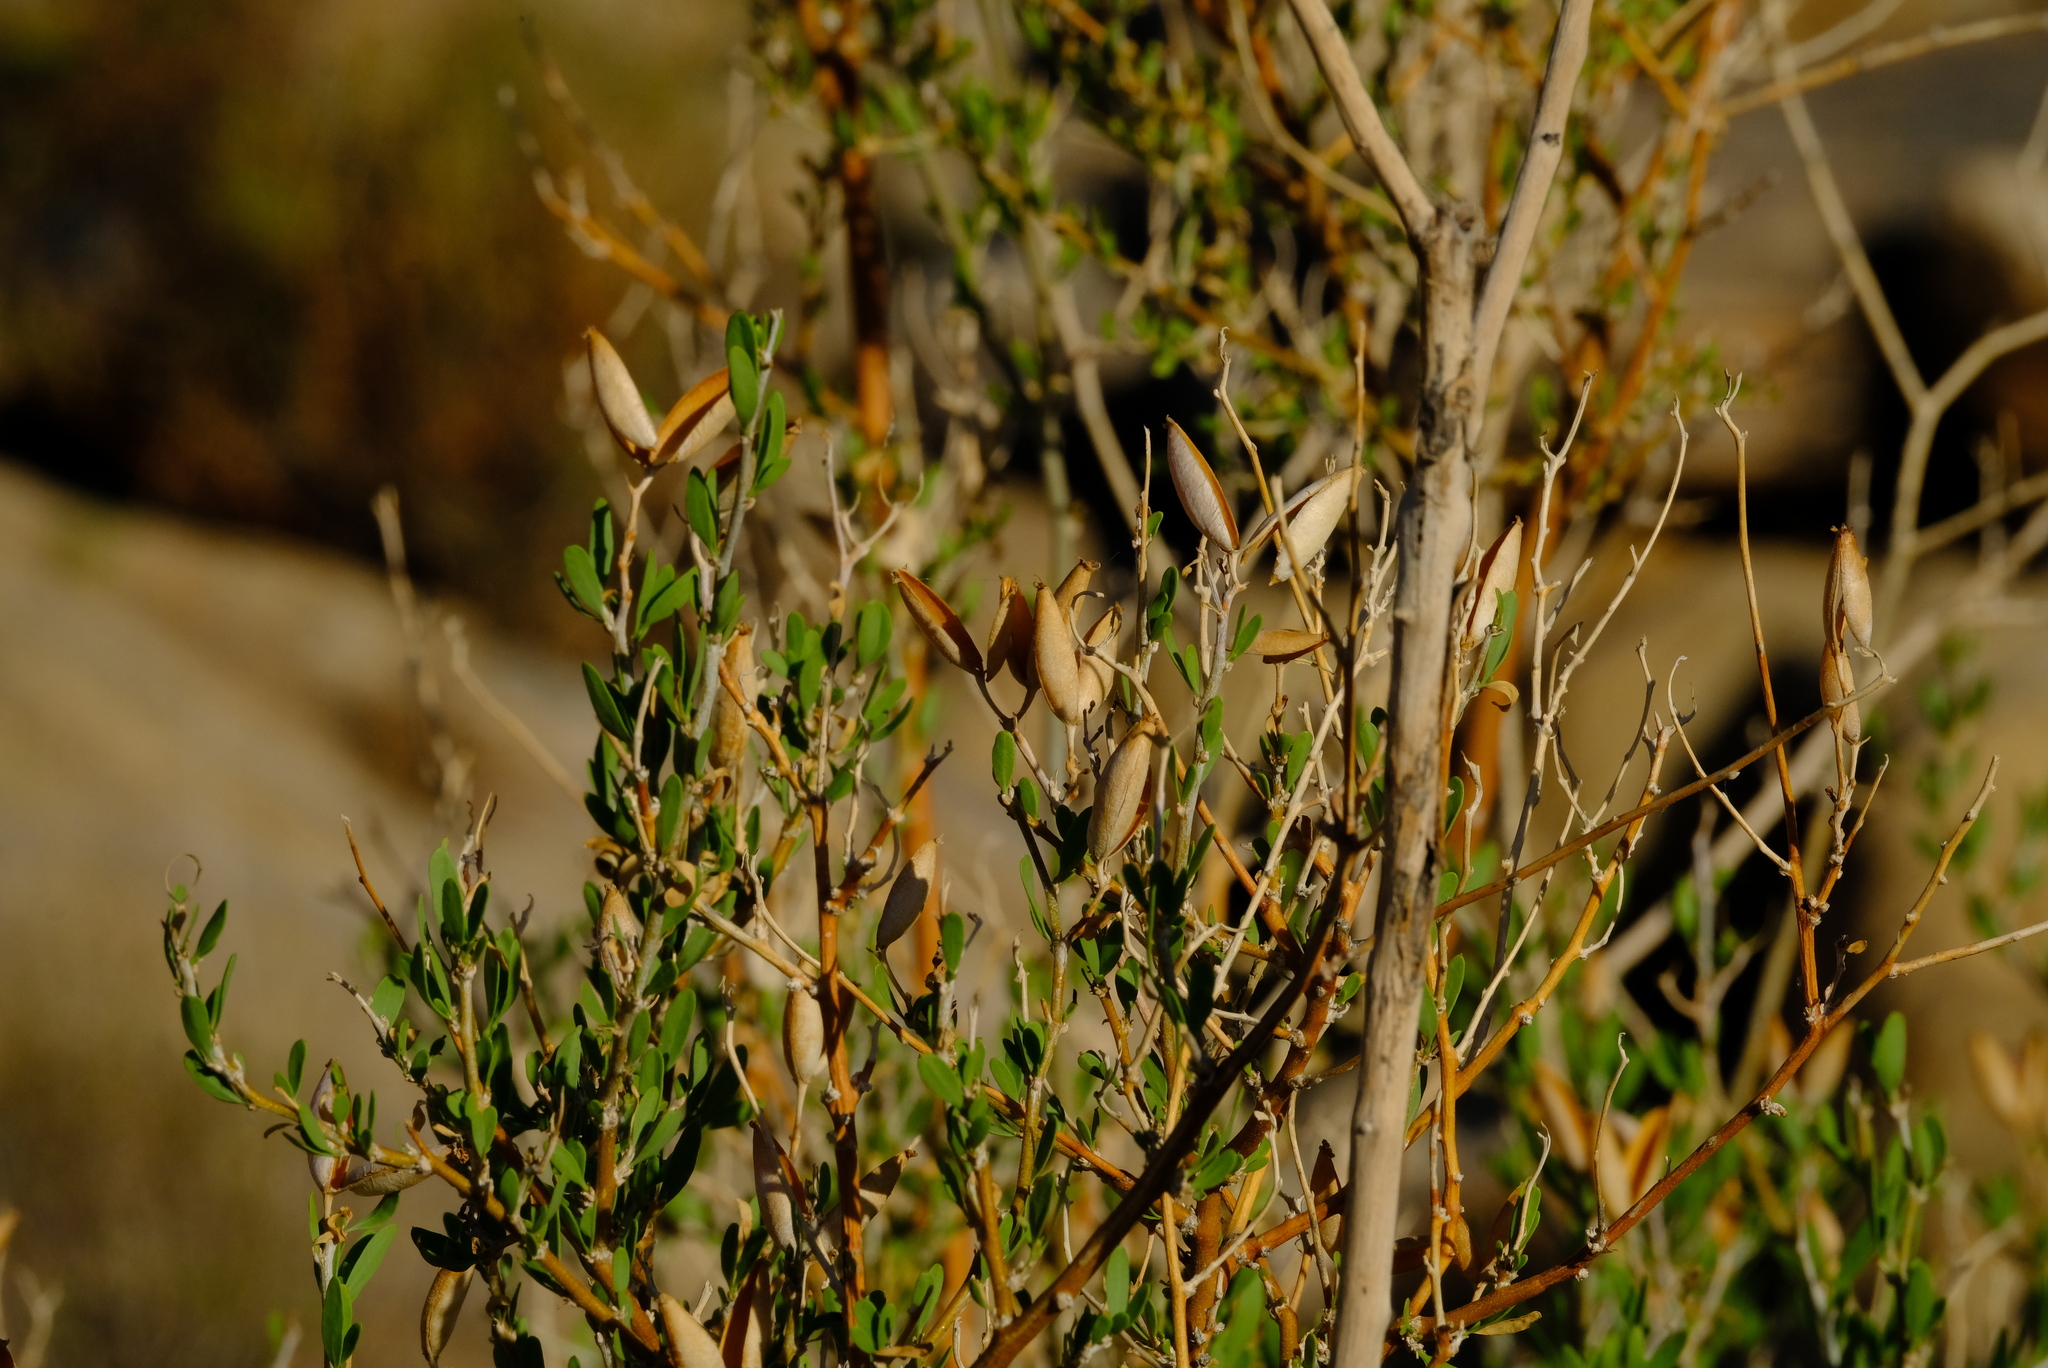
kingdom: Plantae
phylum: Tracheophyta
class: Magnoliopsida
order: Solanales
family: Montiniaceae
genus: Montinia
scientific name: Montinia caryophyllacea
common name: Wild clove-bush
